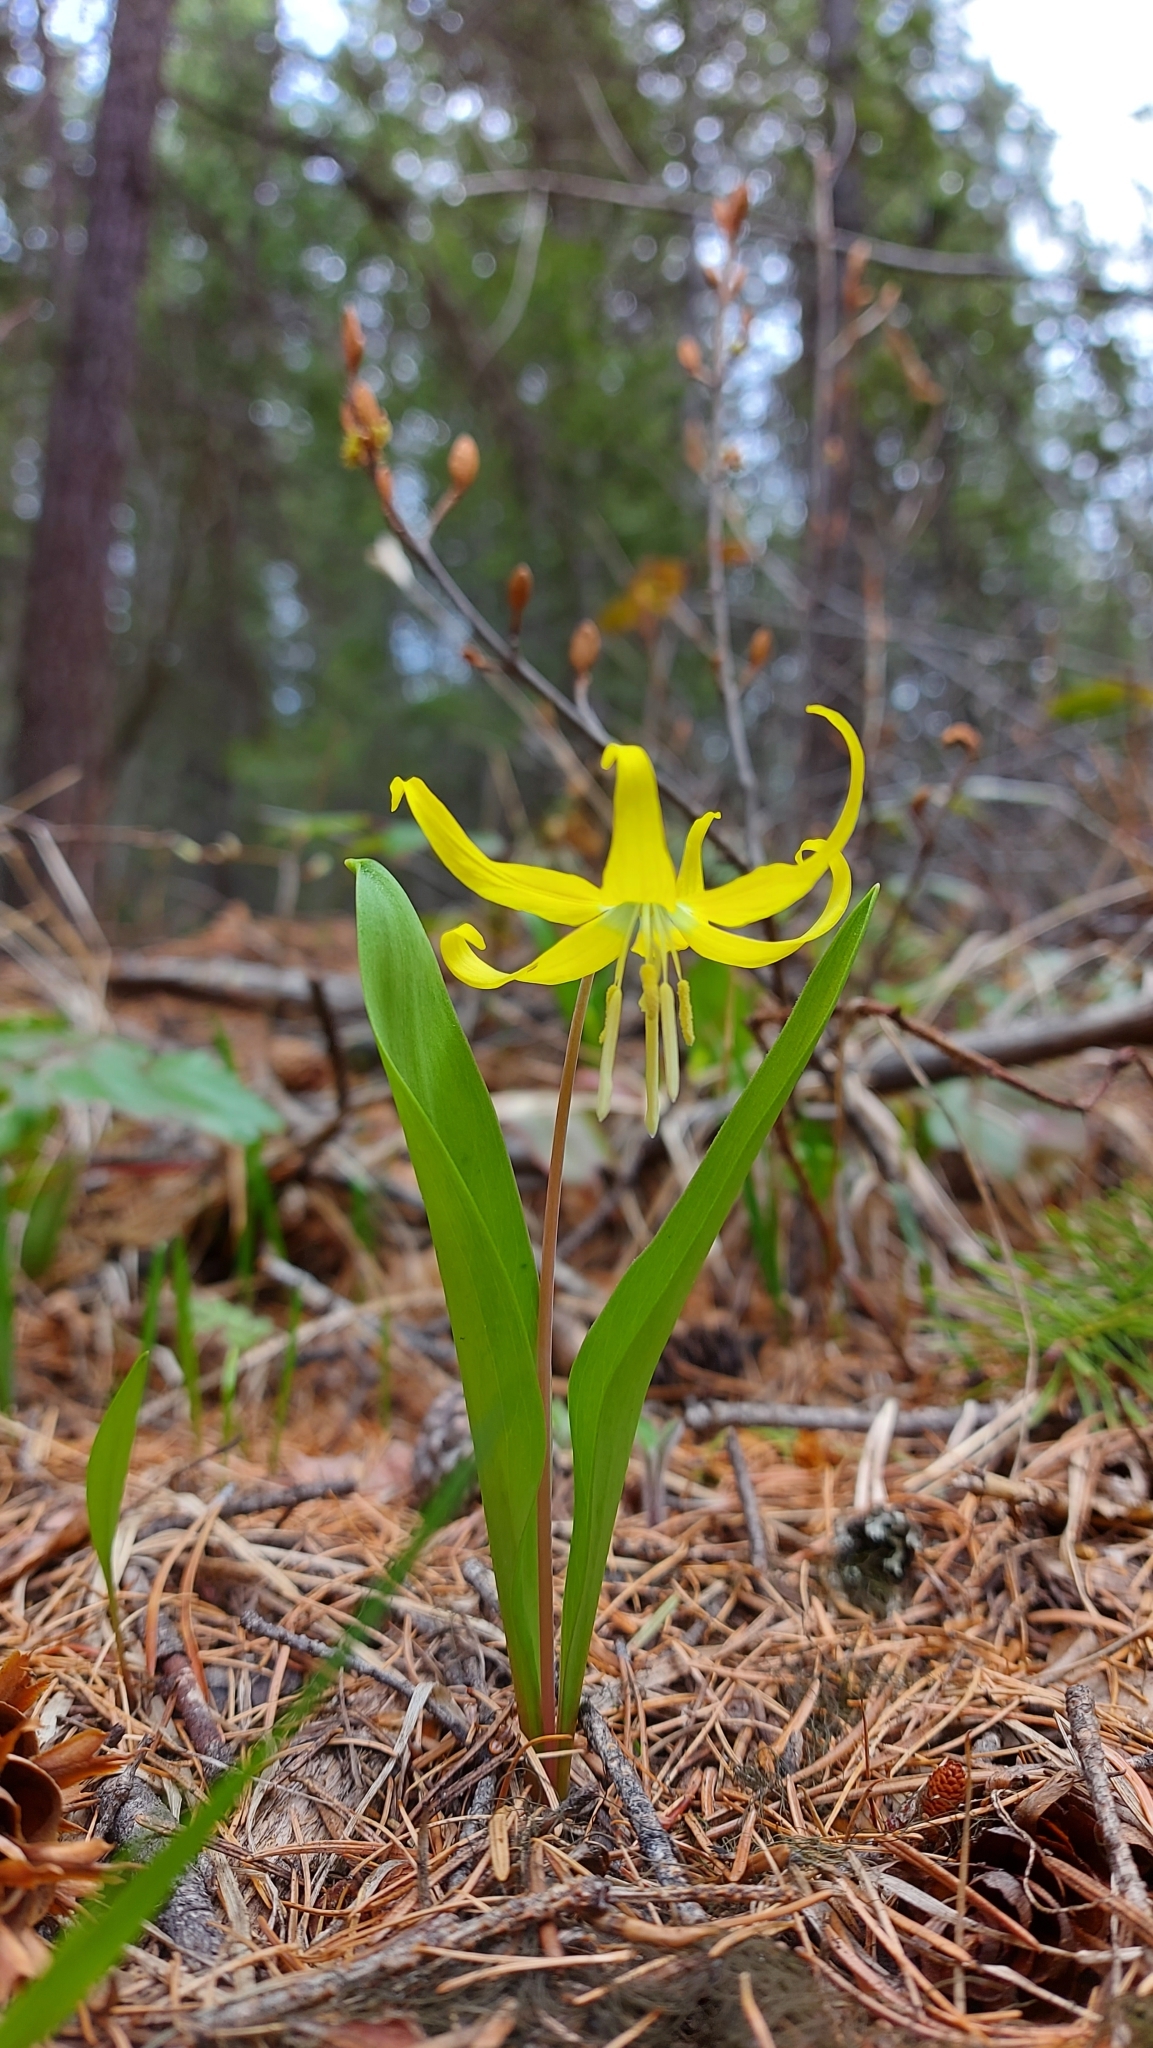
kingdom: Plantae
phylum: Tracheophyta
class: Liliopsida
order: Liliales
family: Liliaceae
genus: Erythronium
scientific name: Erythronium grandiflorum
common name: Avalanche-lily
